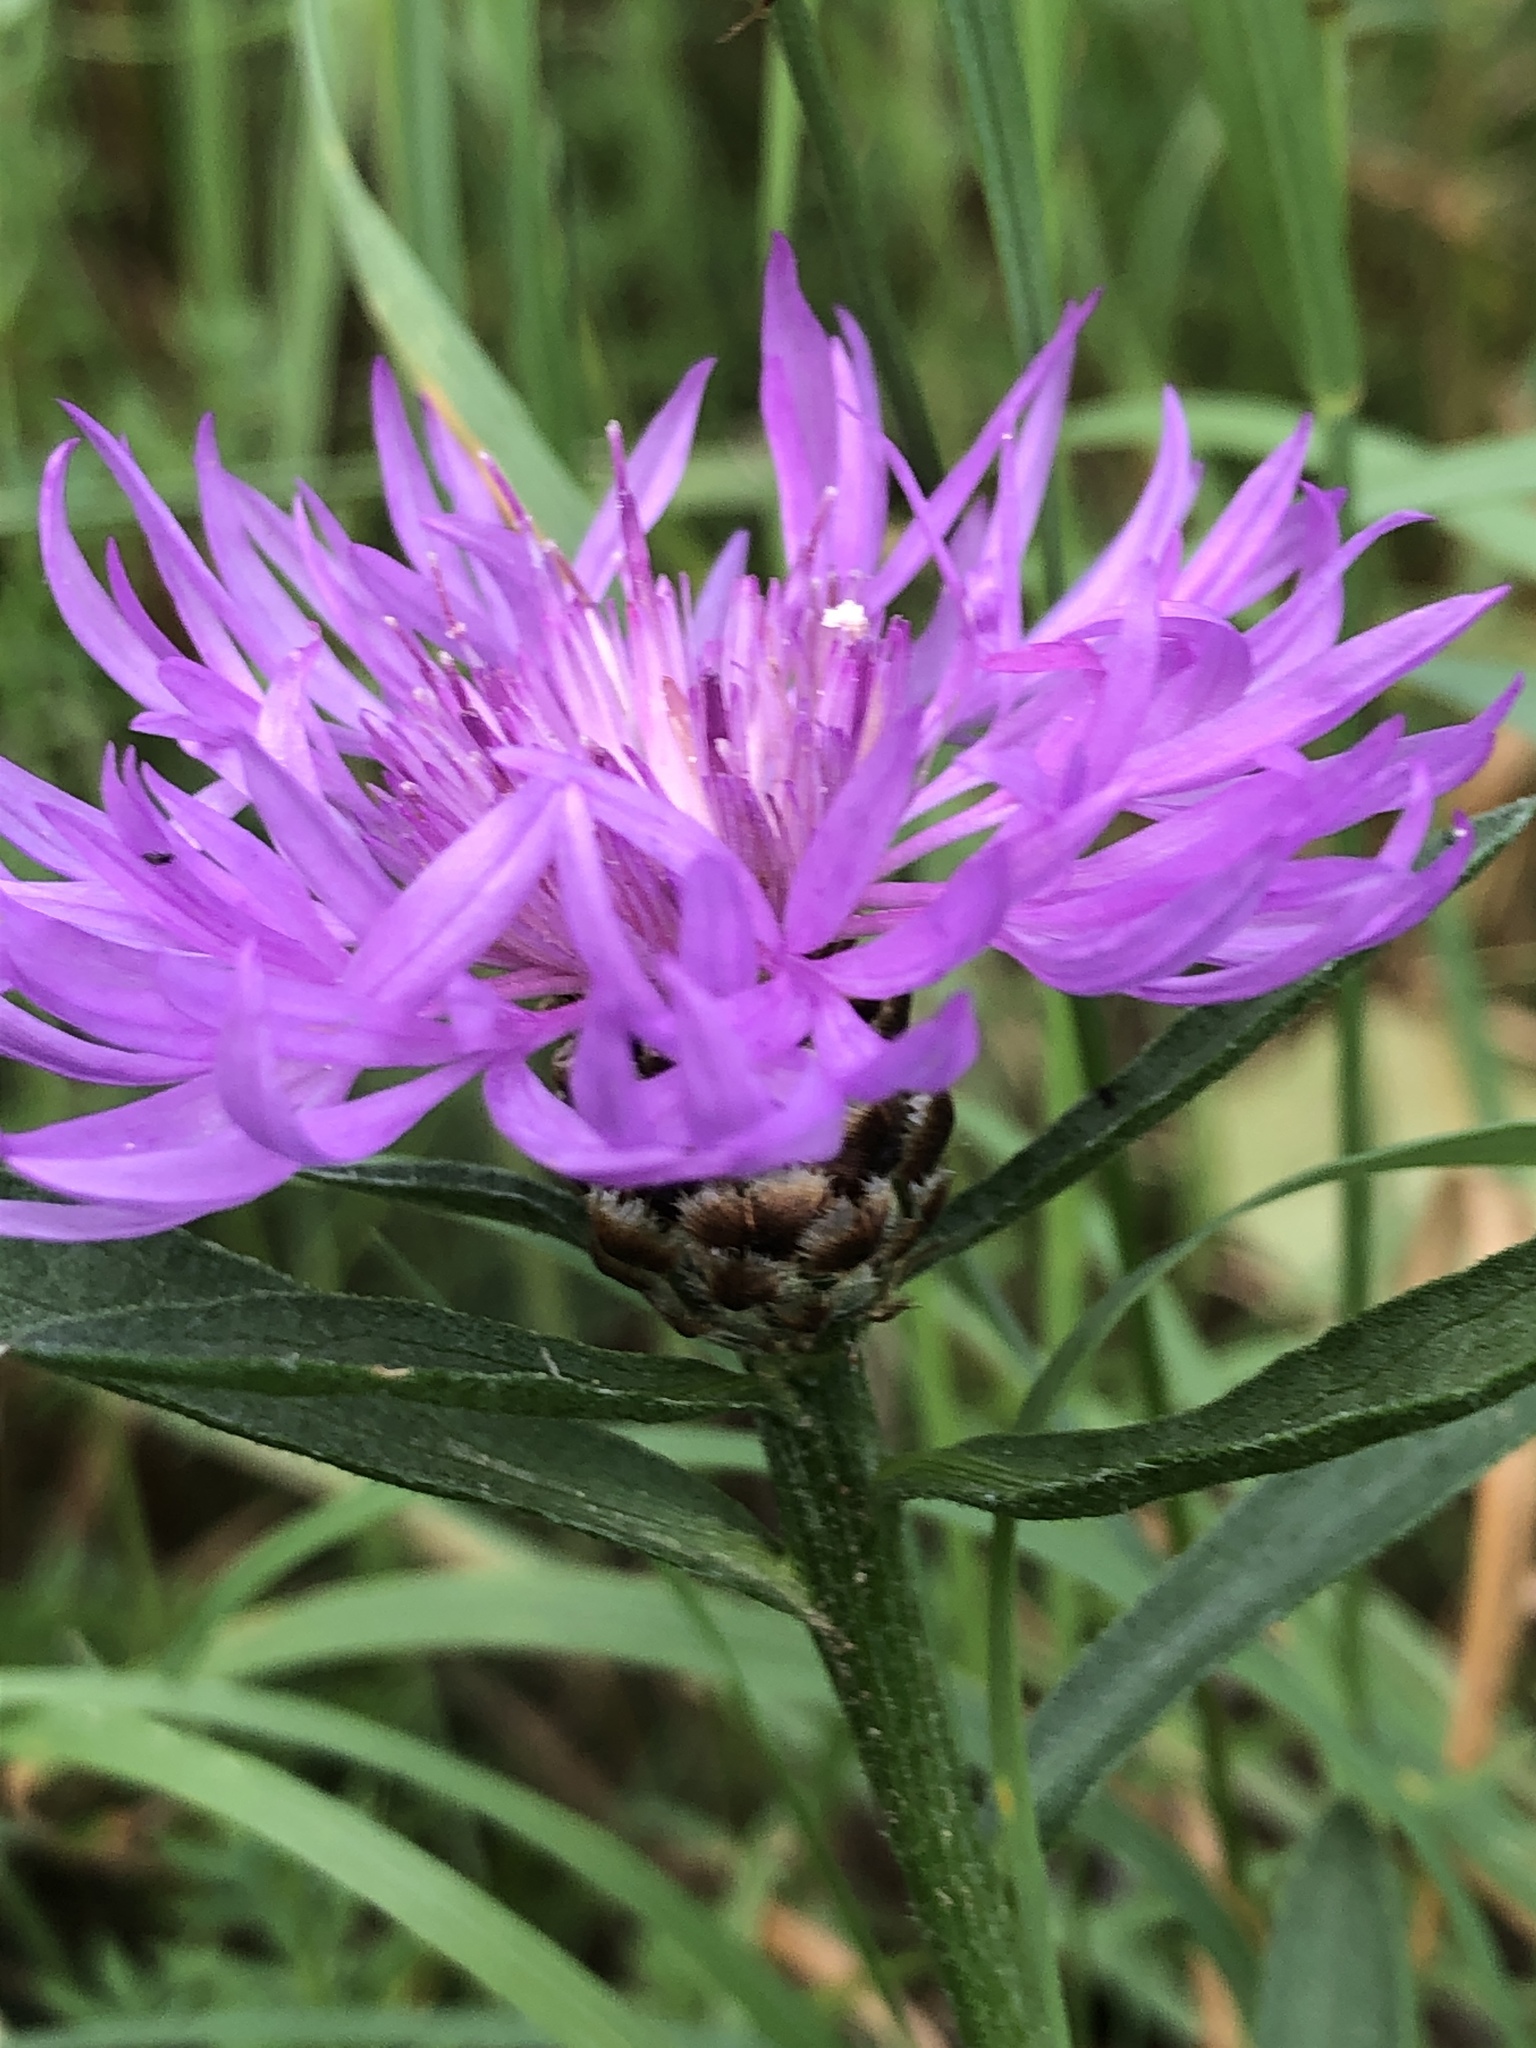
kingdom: Plantae
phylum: Tracheophyta
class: Magnoliopsida
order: Asterales
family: Asteraceae
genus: Centaurea
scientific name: Centaurea jacea
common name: Brown knapweed
